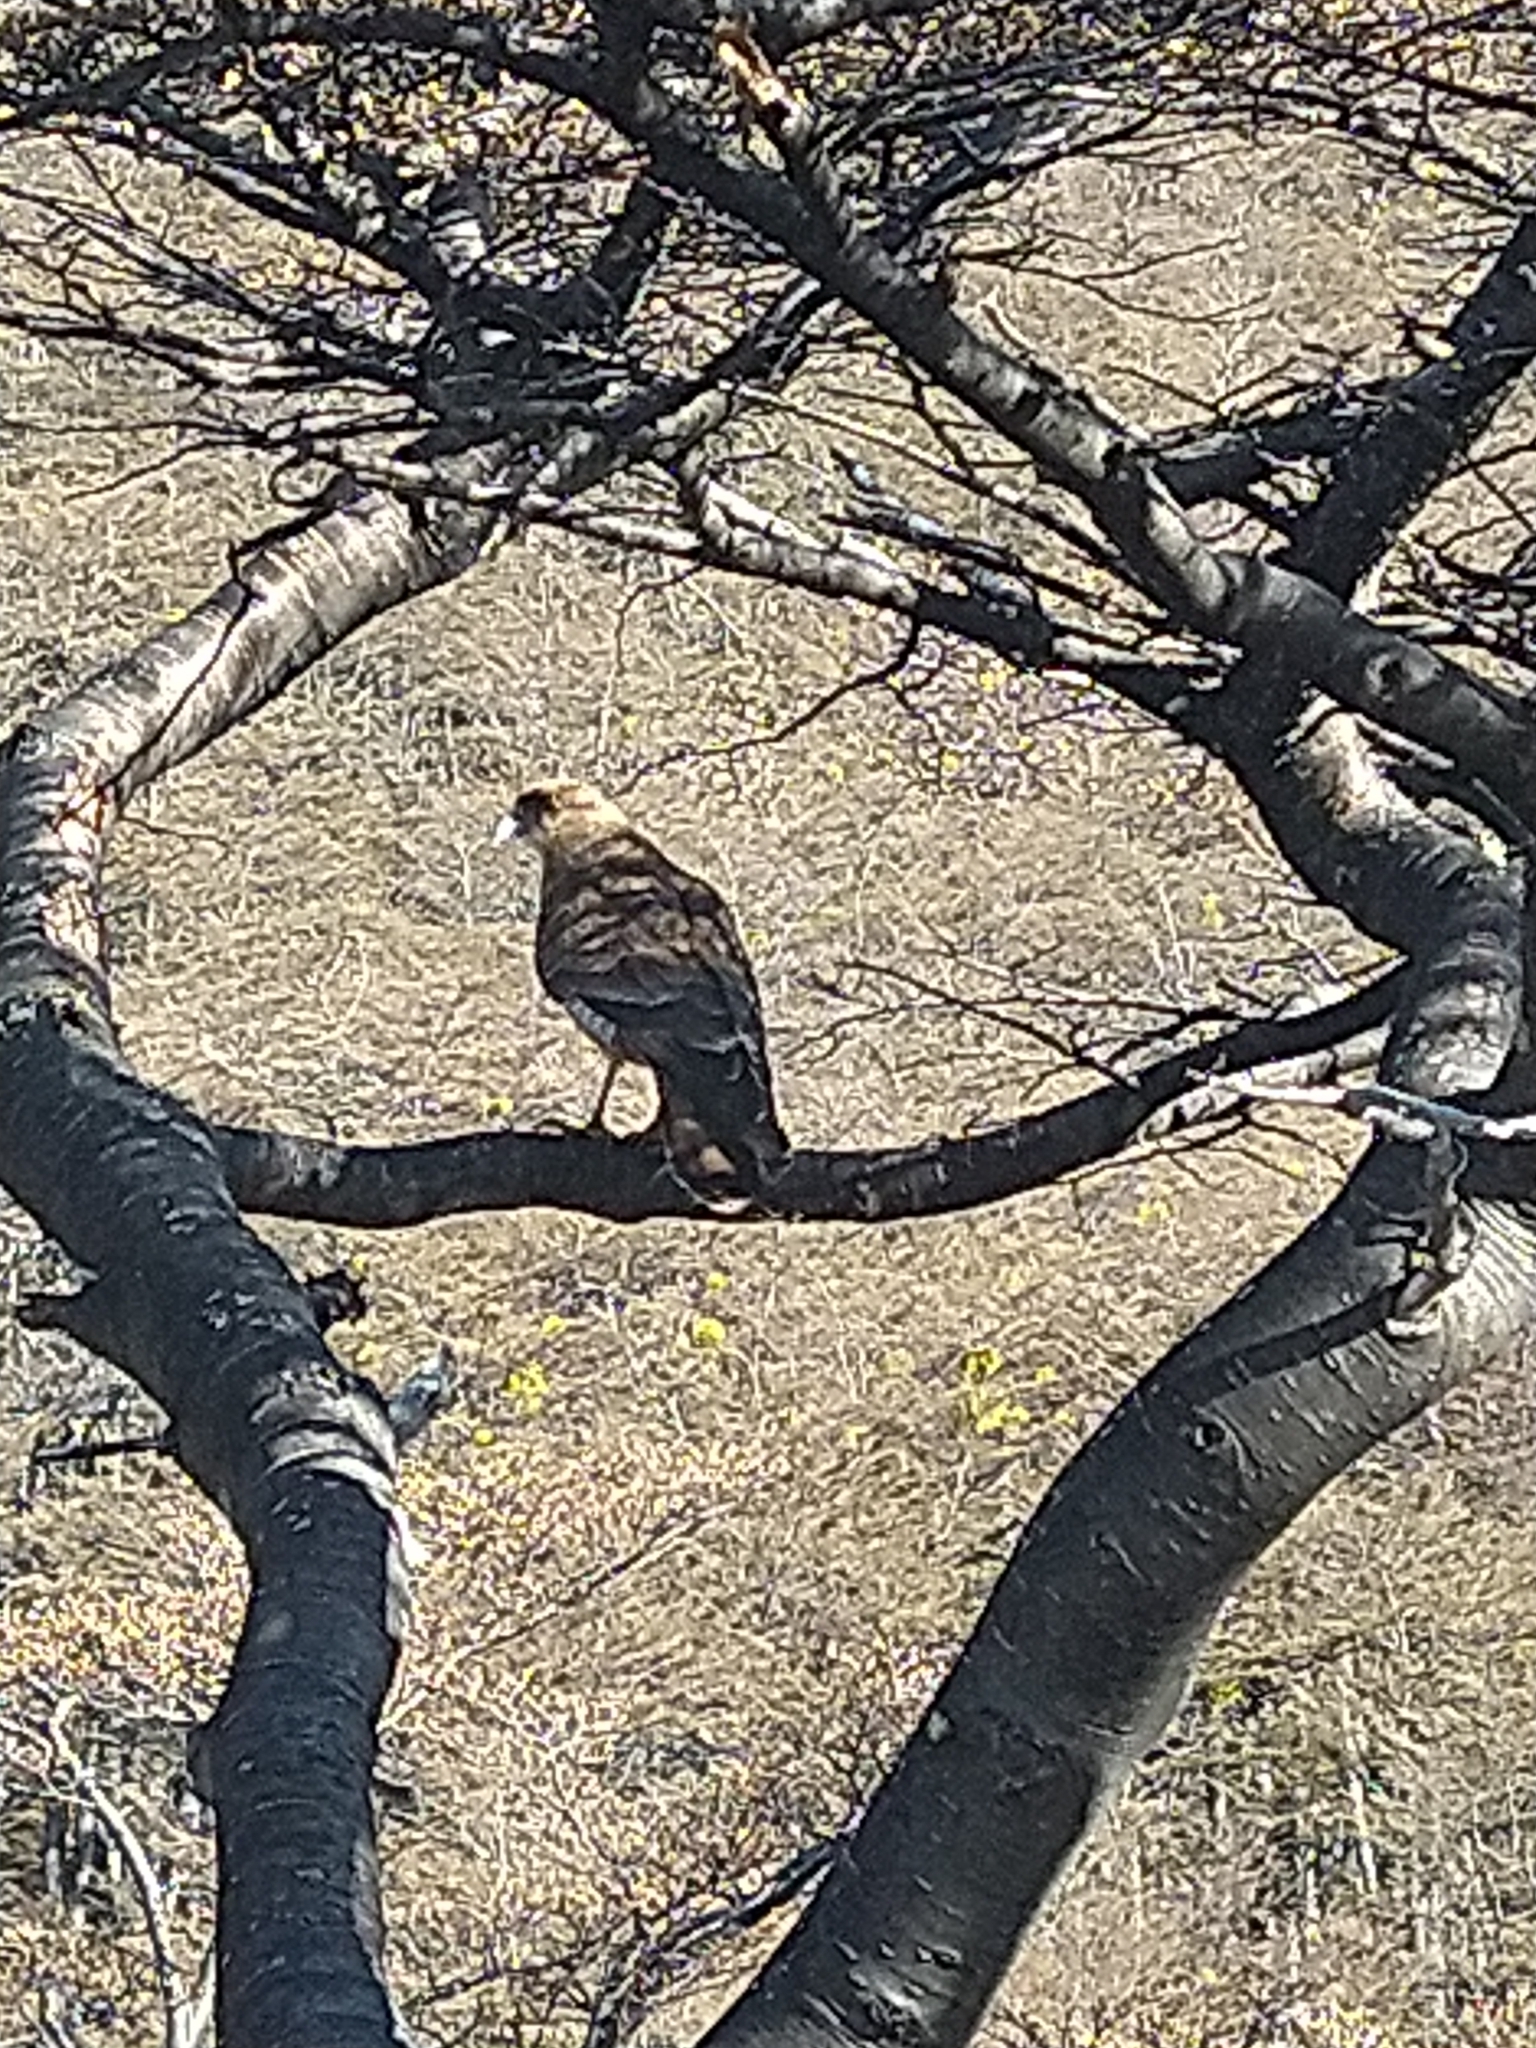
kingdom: Animalia
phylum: Chordata
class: Aves
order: Falconiformes
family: Falconidae
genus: Daptrius
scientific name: Daptrius
